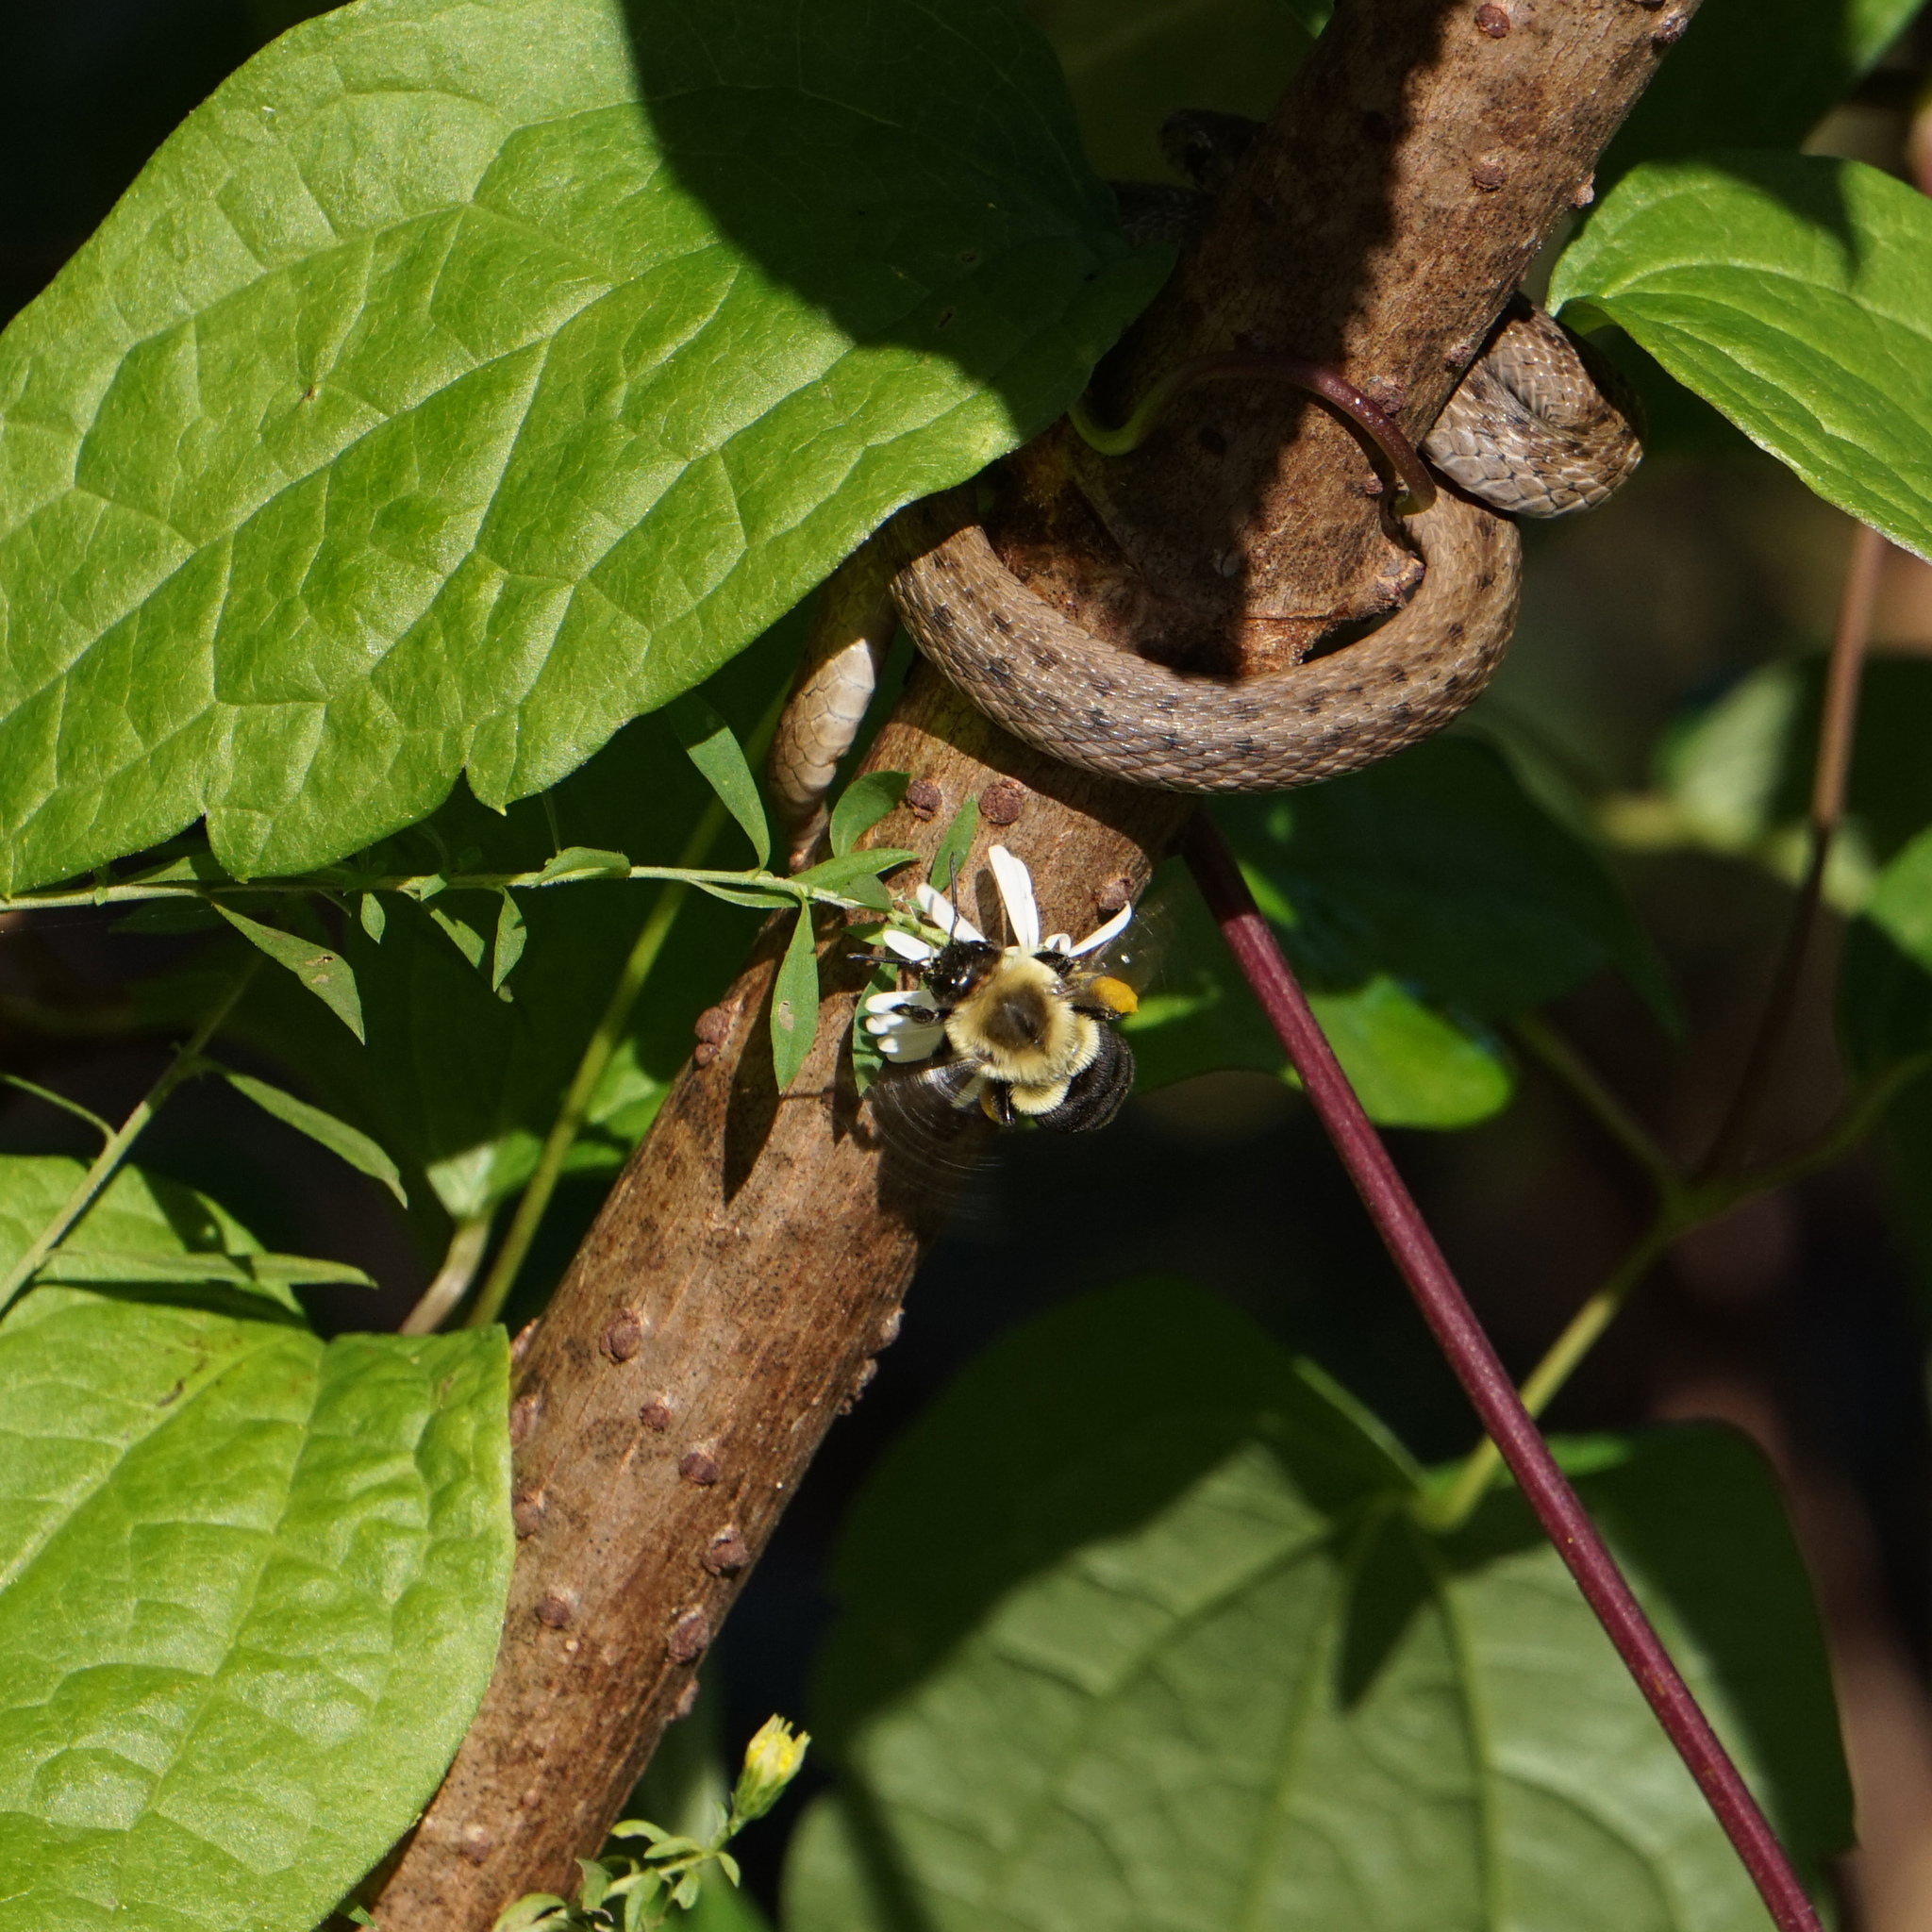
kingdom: Animalia
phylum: Arthropoda
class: Insecta
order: Hymenoptera
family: Apidae
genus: Bombus
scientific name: Bombus impatiens
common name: Common eastern bumble bee
